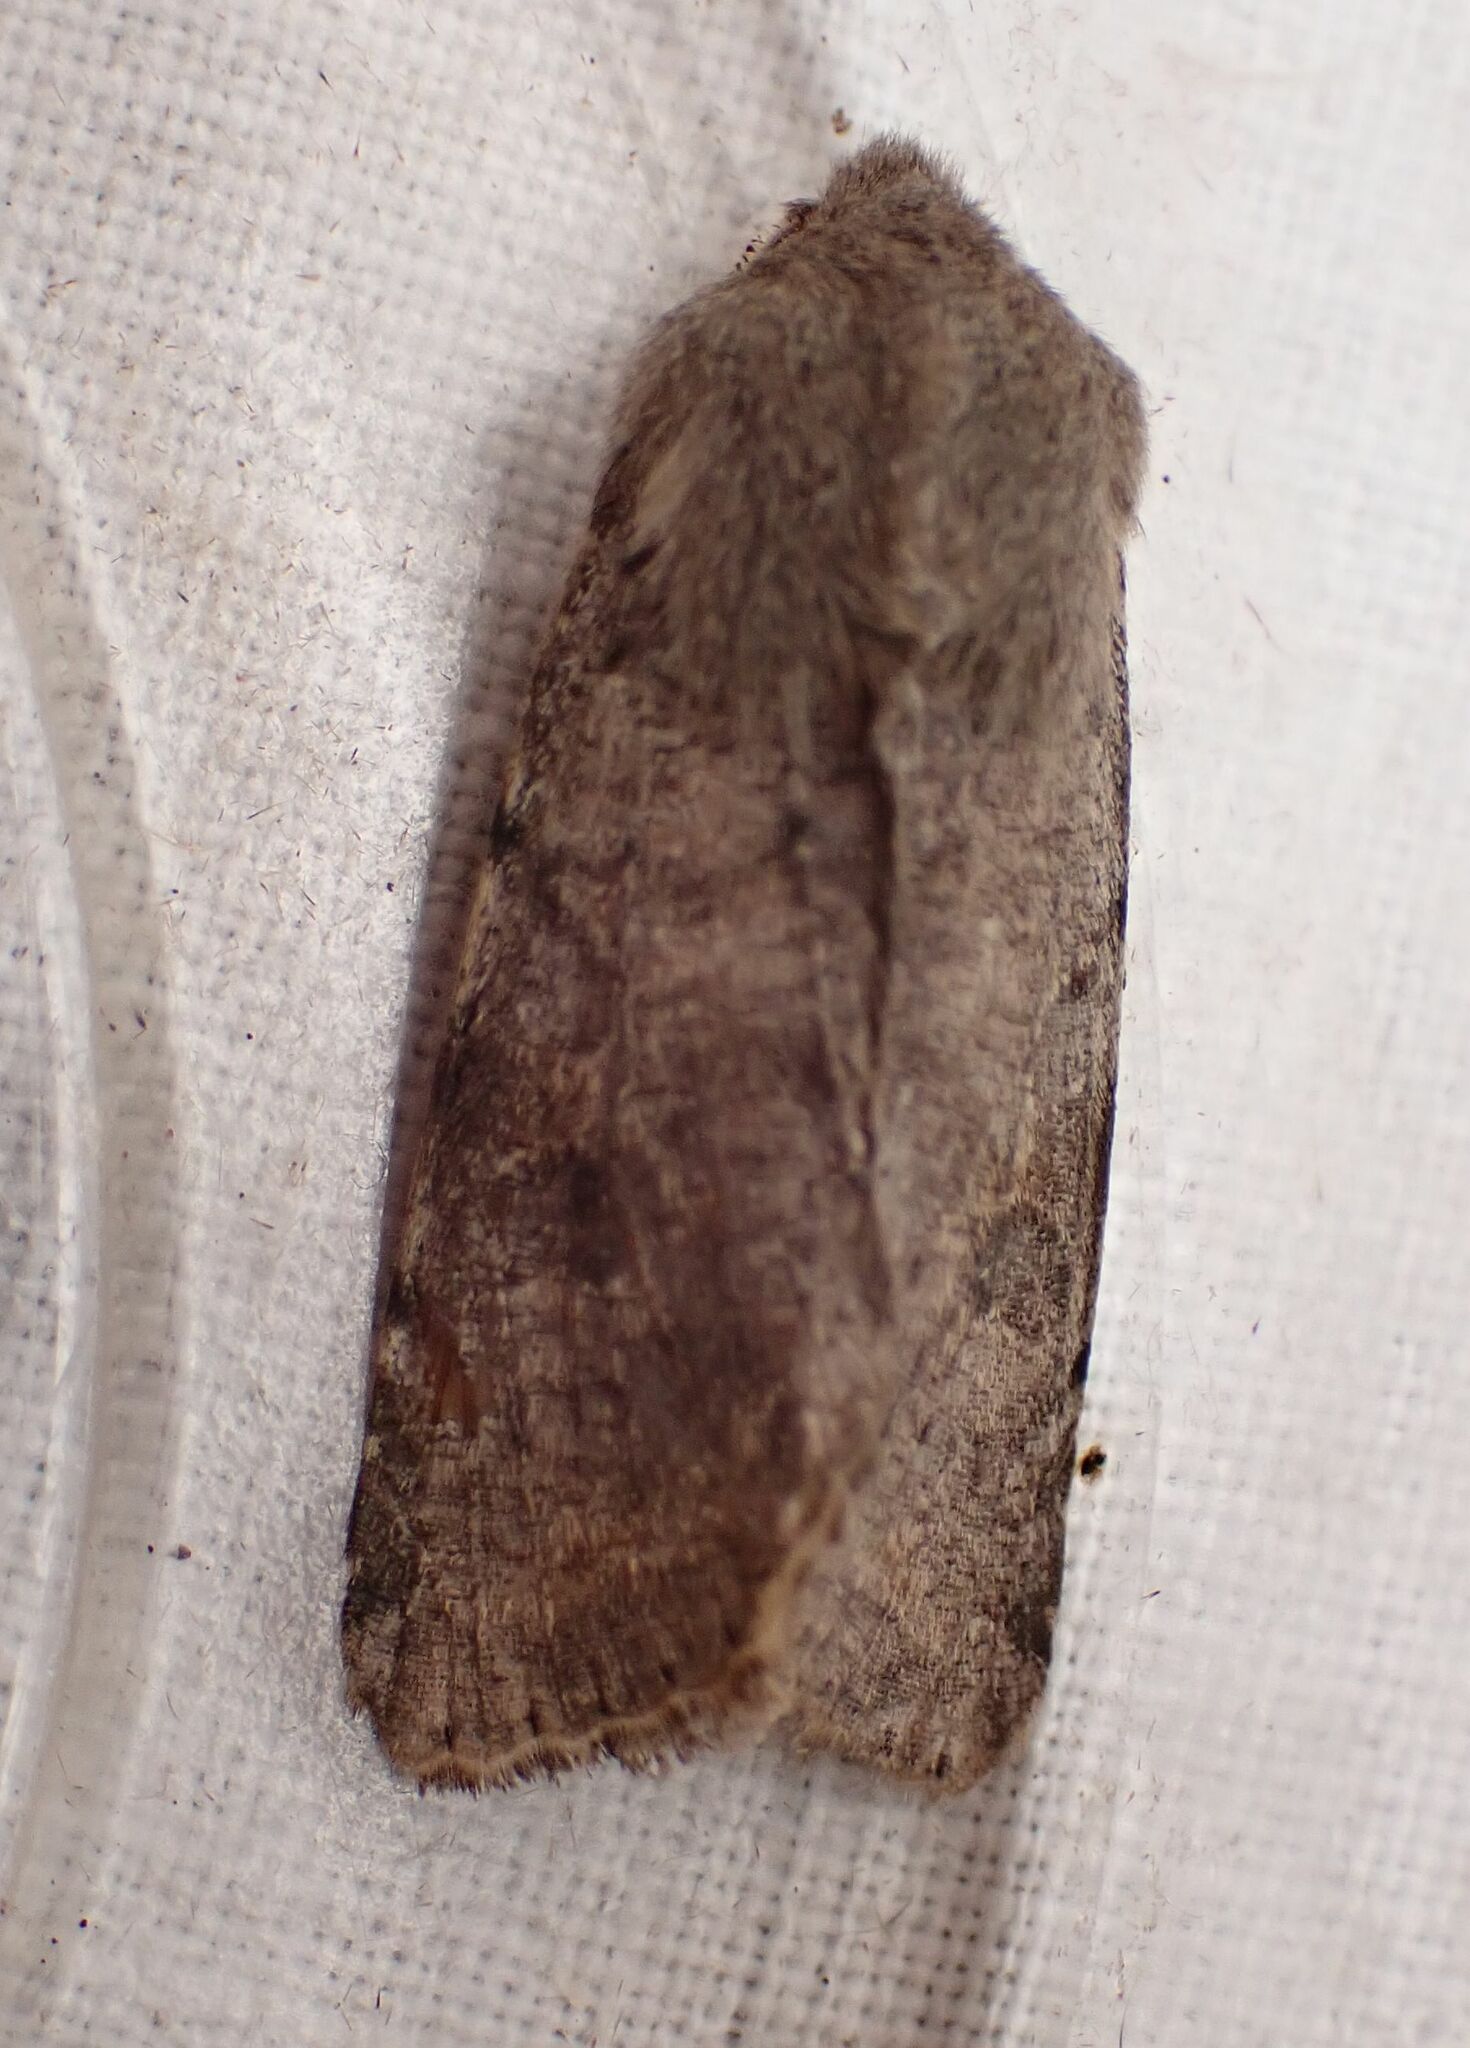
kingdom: Animalia
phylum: Arthropoda
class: Insecta
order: Lepidoptera
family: Noctuidae
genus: Orthosia
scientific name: Orthosia incerta
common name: Clouded drab
